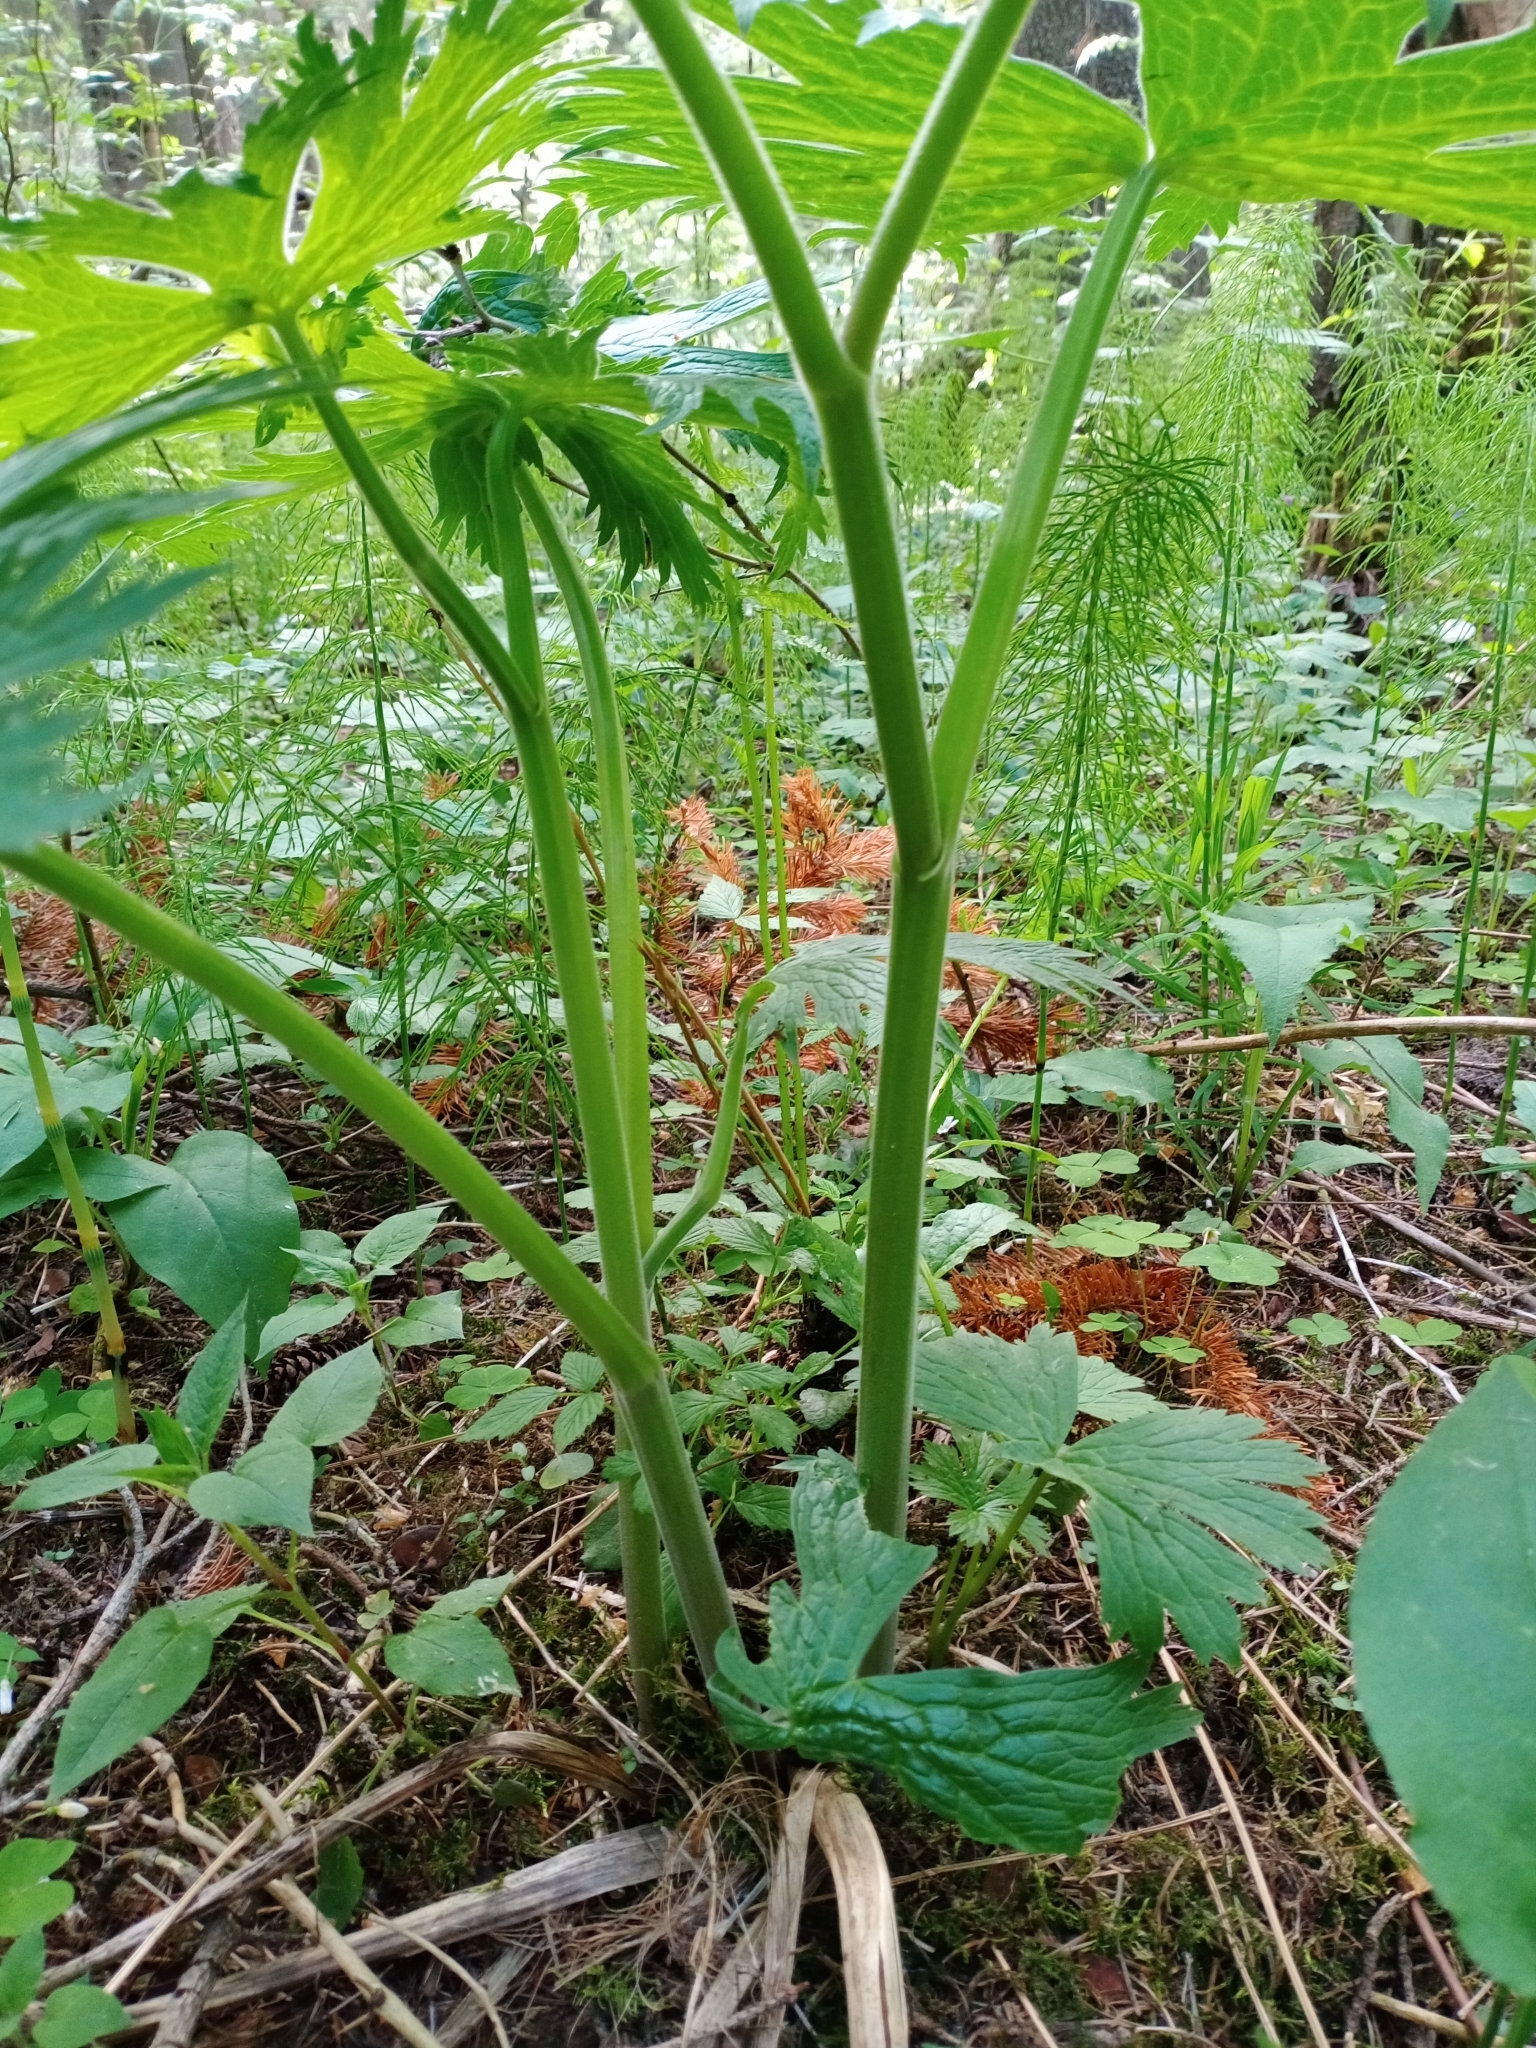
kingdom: Plantae
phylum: Tracheophyta
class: Magnoliopsida
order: Ranunculales
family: Ranunculaceae
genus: Aconitum
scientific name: Aconitum septentrionale
